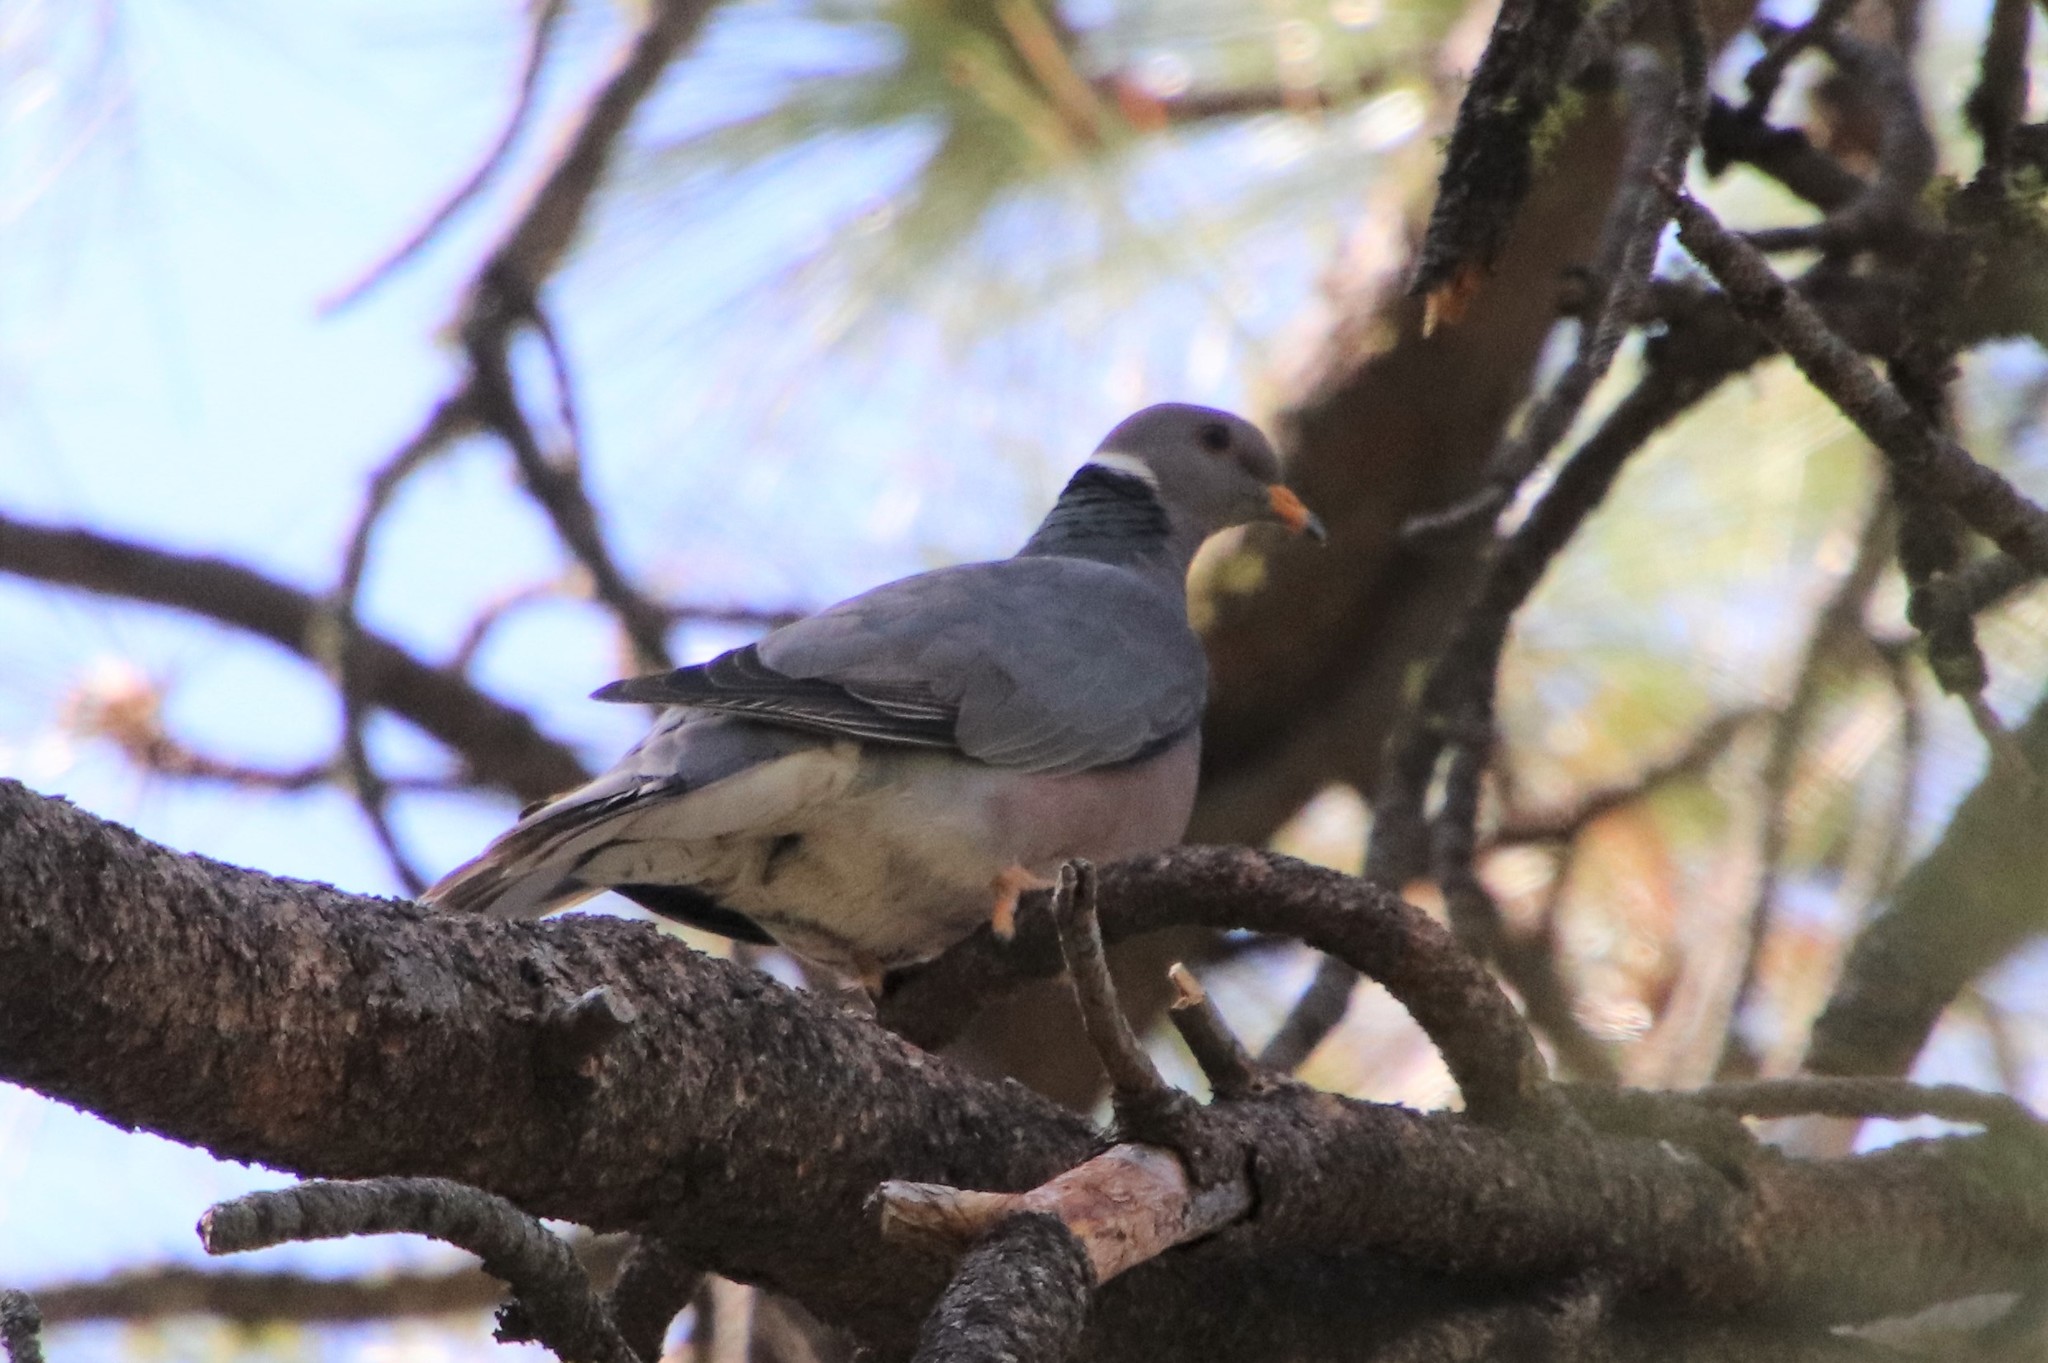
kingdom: Animalia
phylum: Chordata
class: Aves
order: Columbiformes
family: Columbidae
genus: Patagioenas
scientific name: Patagioenas fasciata
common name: Band-tailed pigeon
